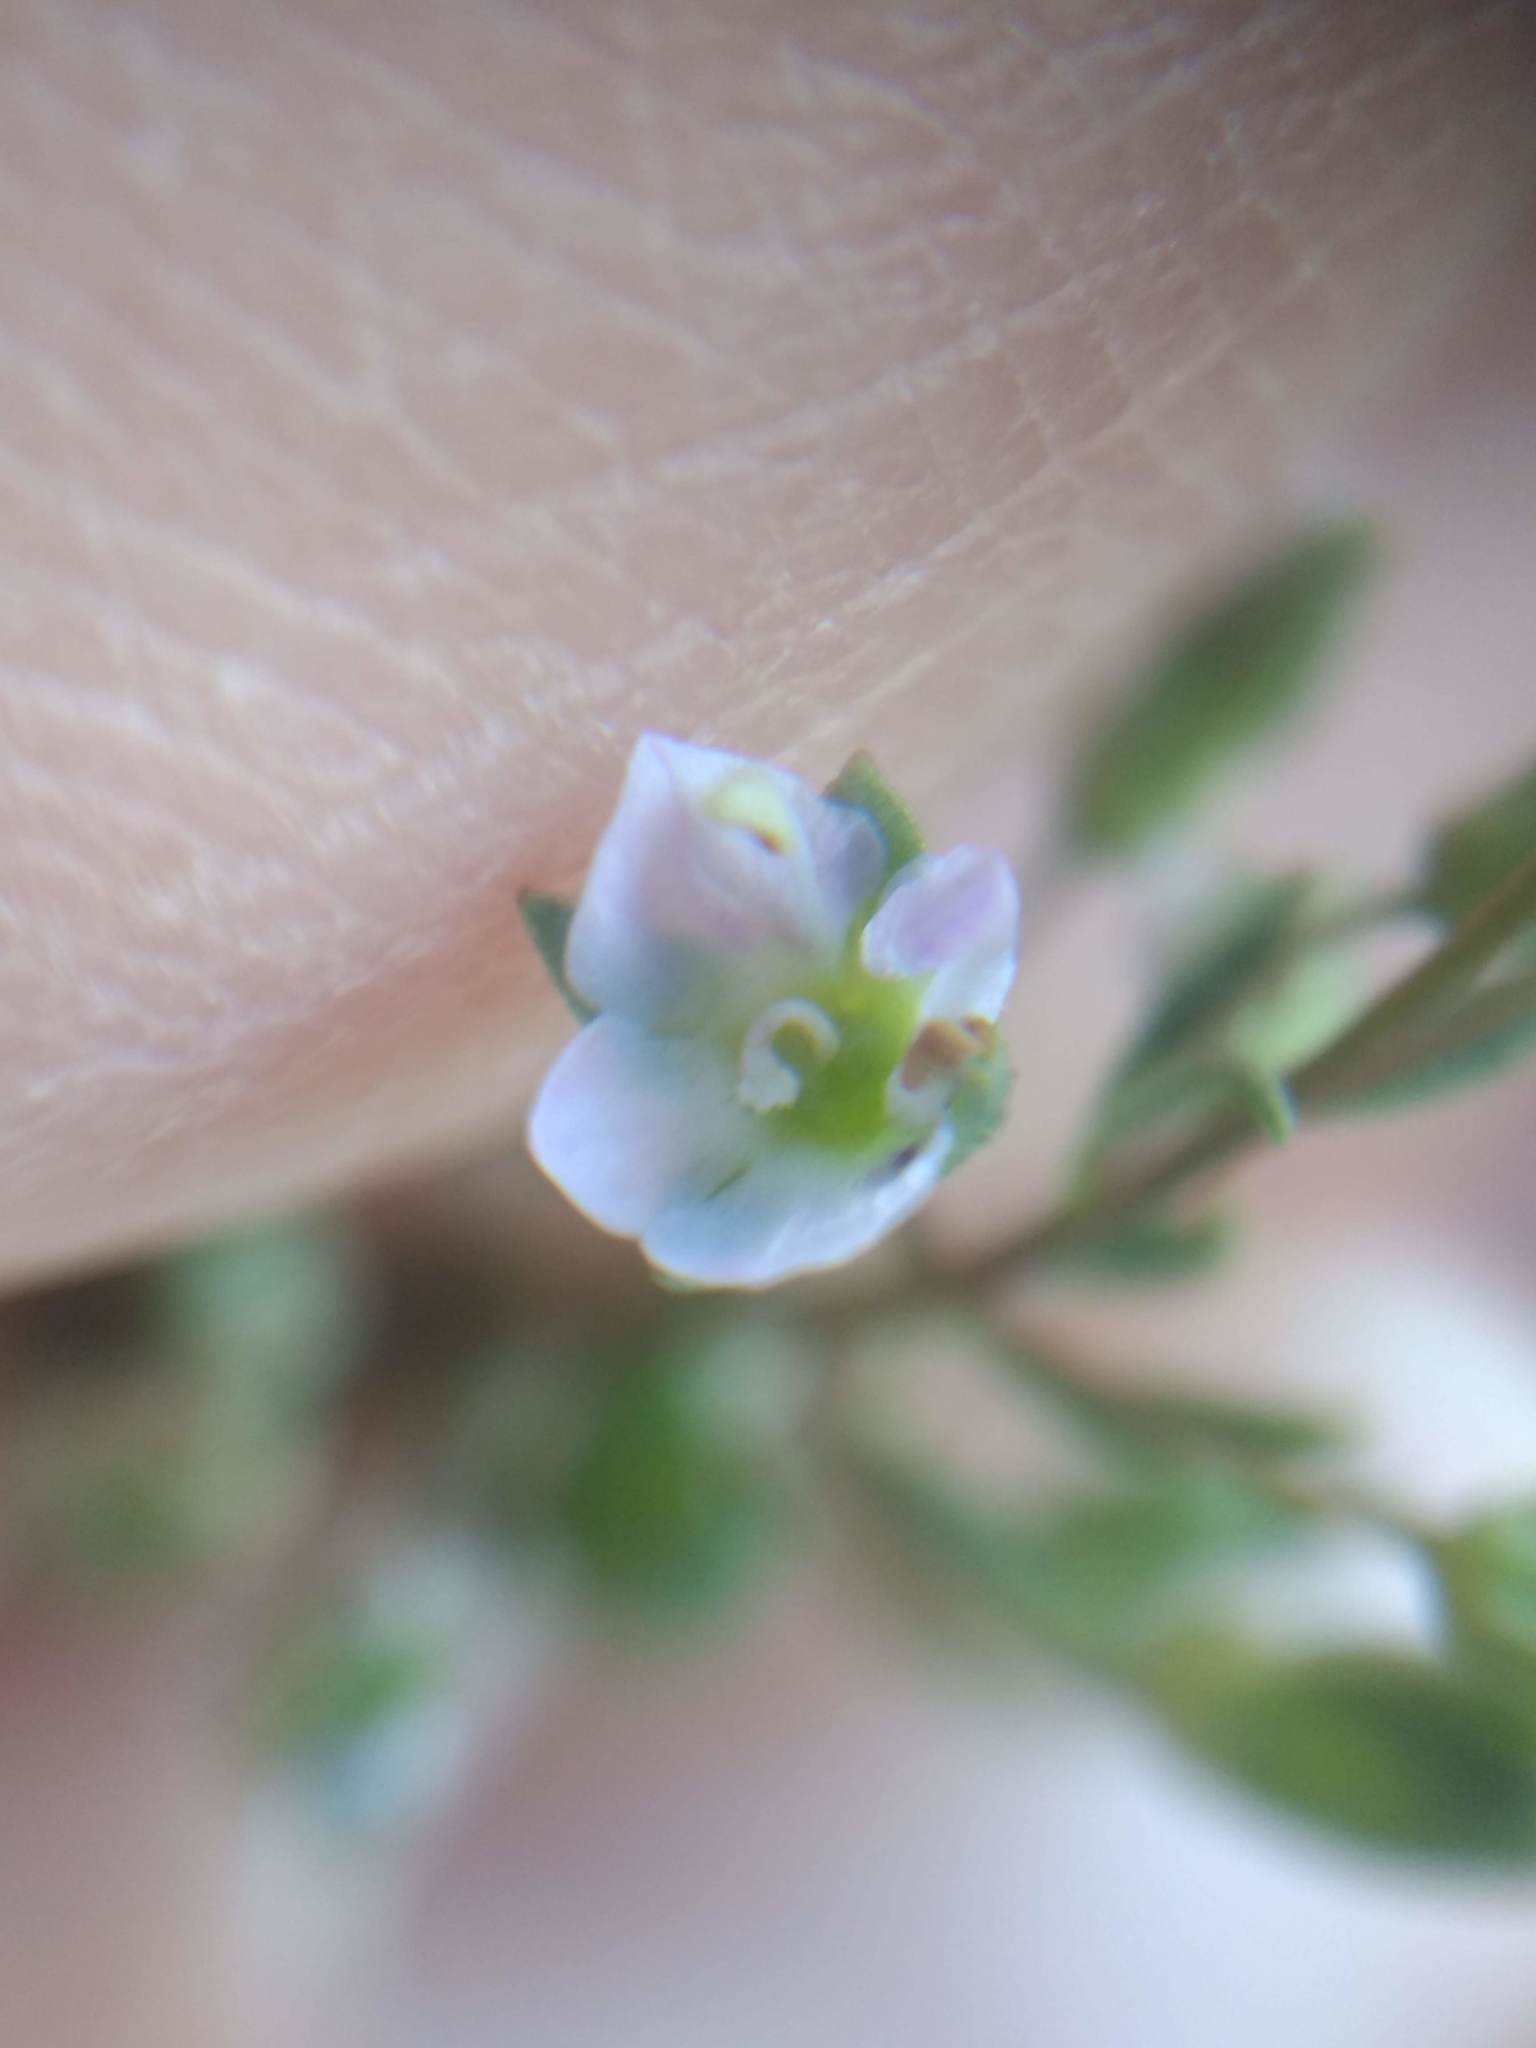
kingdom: Plantae
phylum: Tracheophyta
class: Magnoliopsida
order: Lamiales
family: Plantaginaceae
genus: Veronica
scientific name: Veronica anagallis-aquatica
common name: Water speedwell
